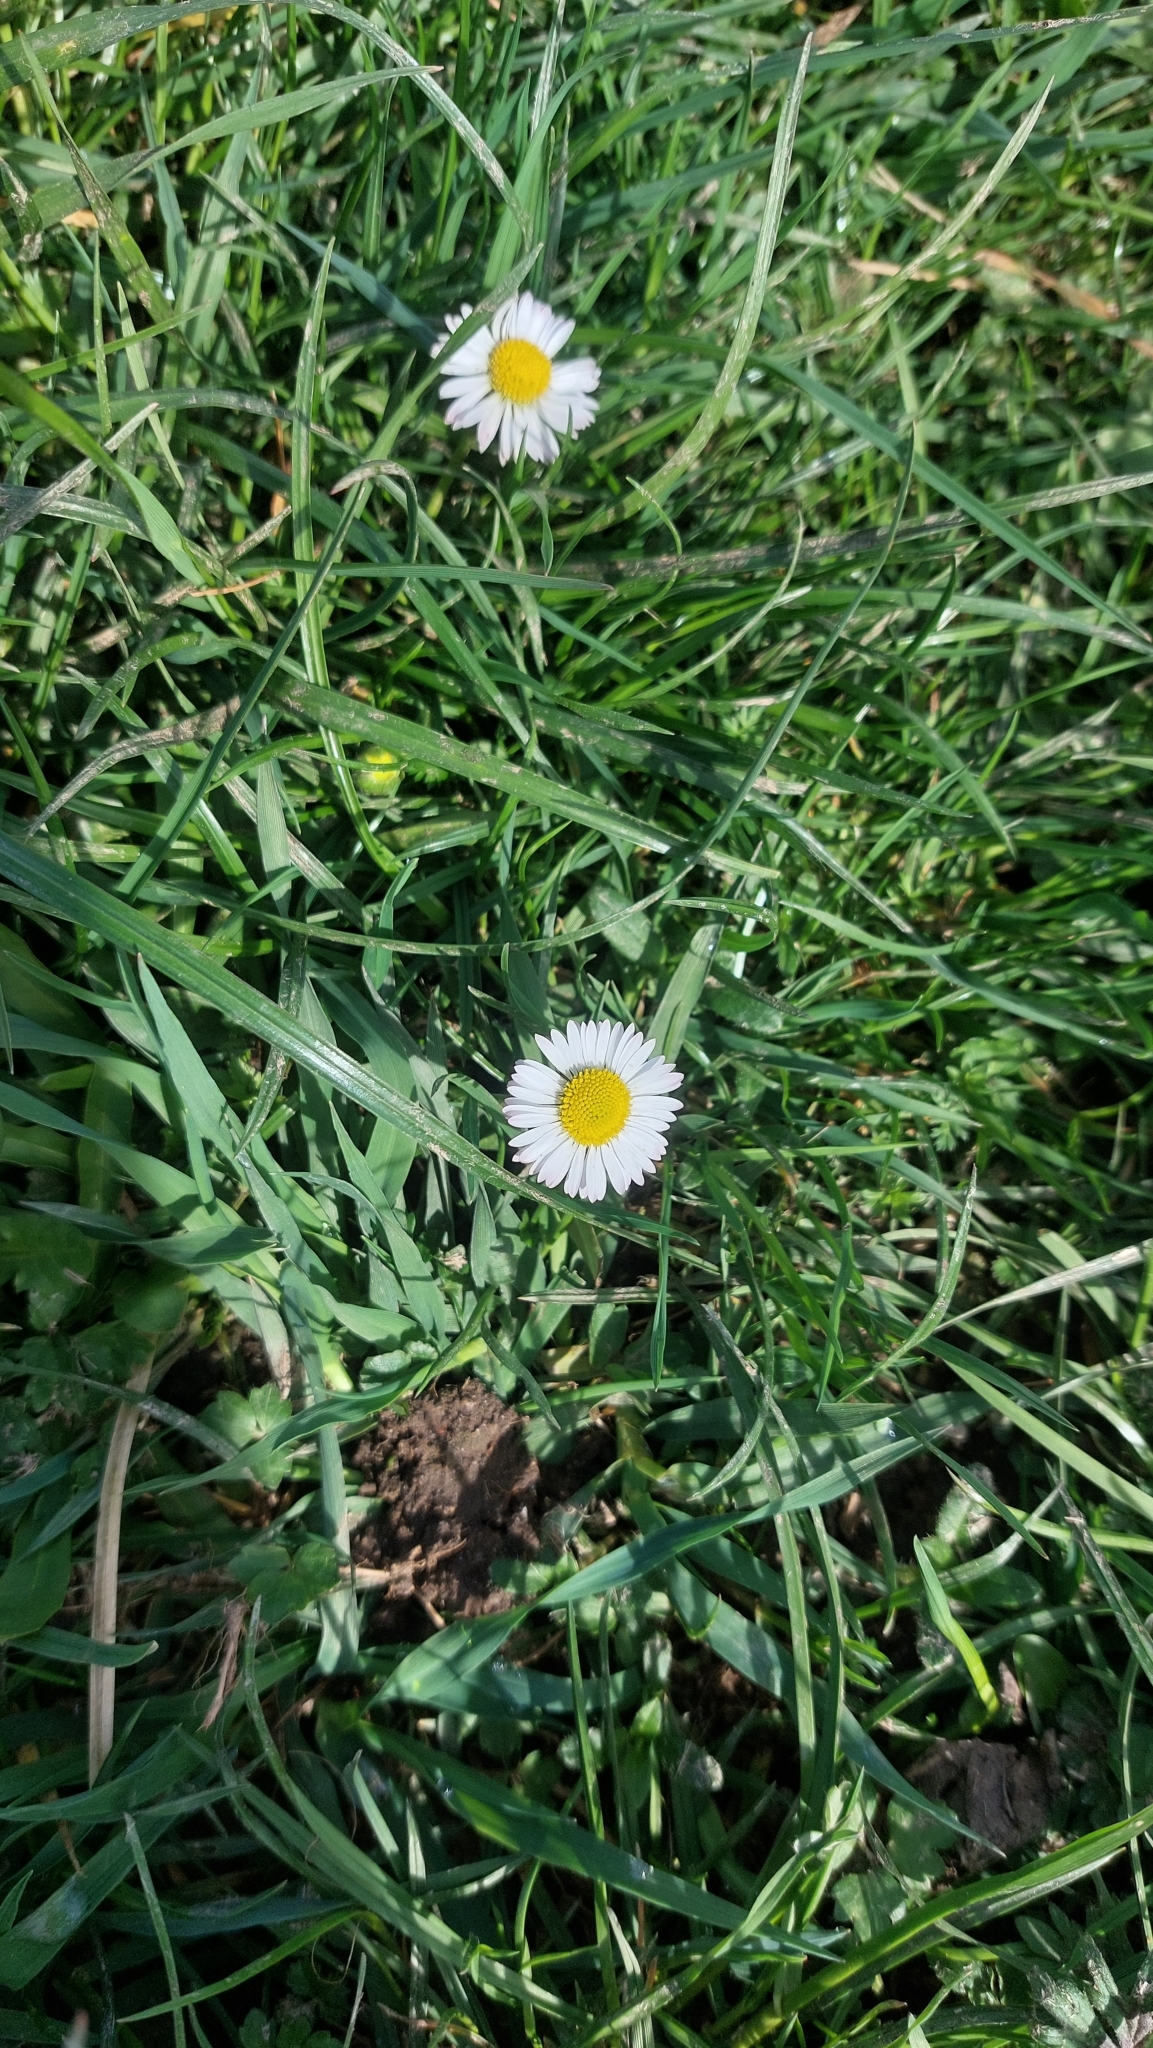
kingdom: Plantae
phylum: Tracheophyta
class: Magnoliopsida
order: Asterales
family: Asteraceae
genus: Bellis
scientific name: Bellis perennis
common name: Lawndaisy
